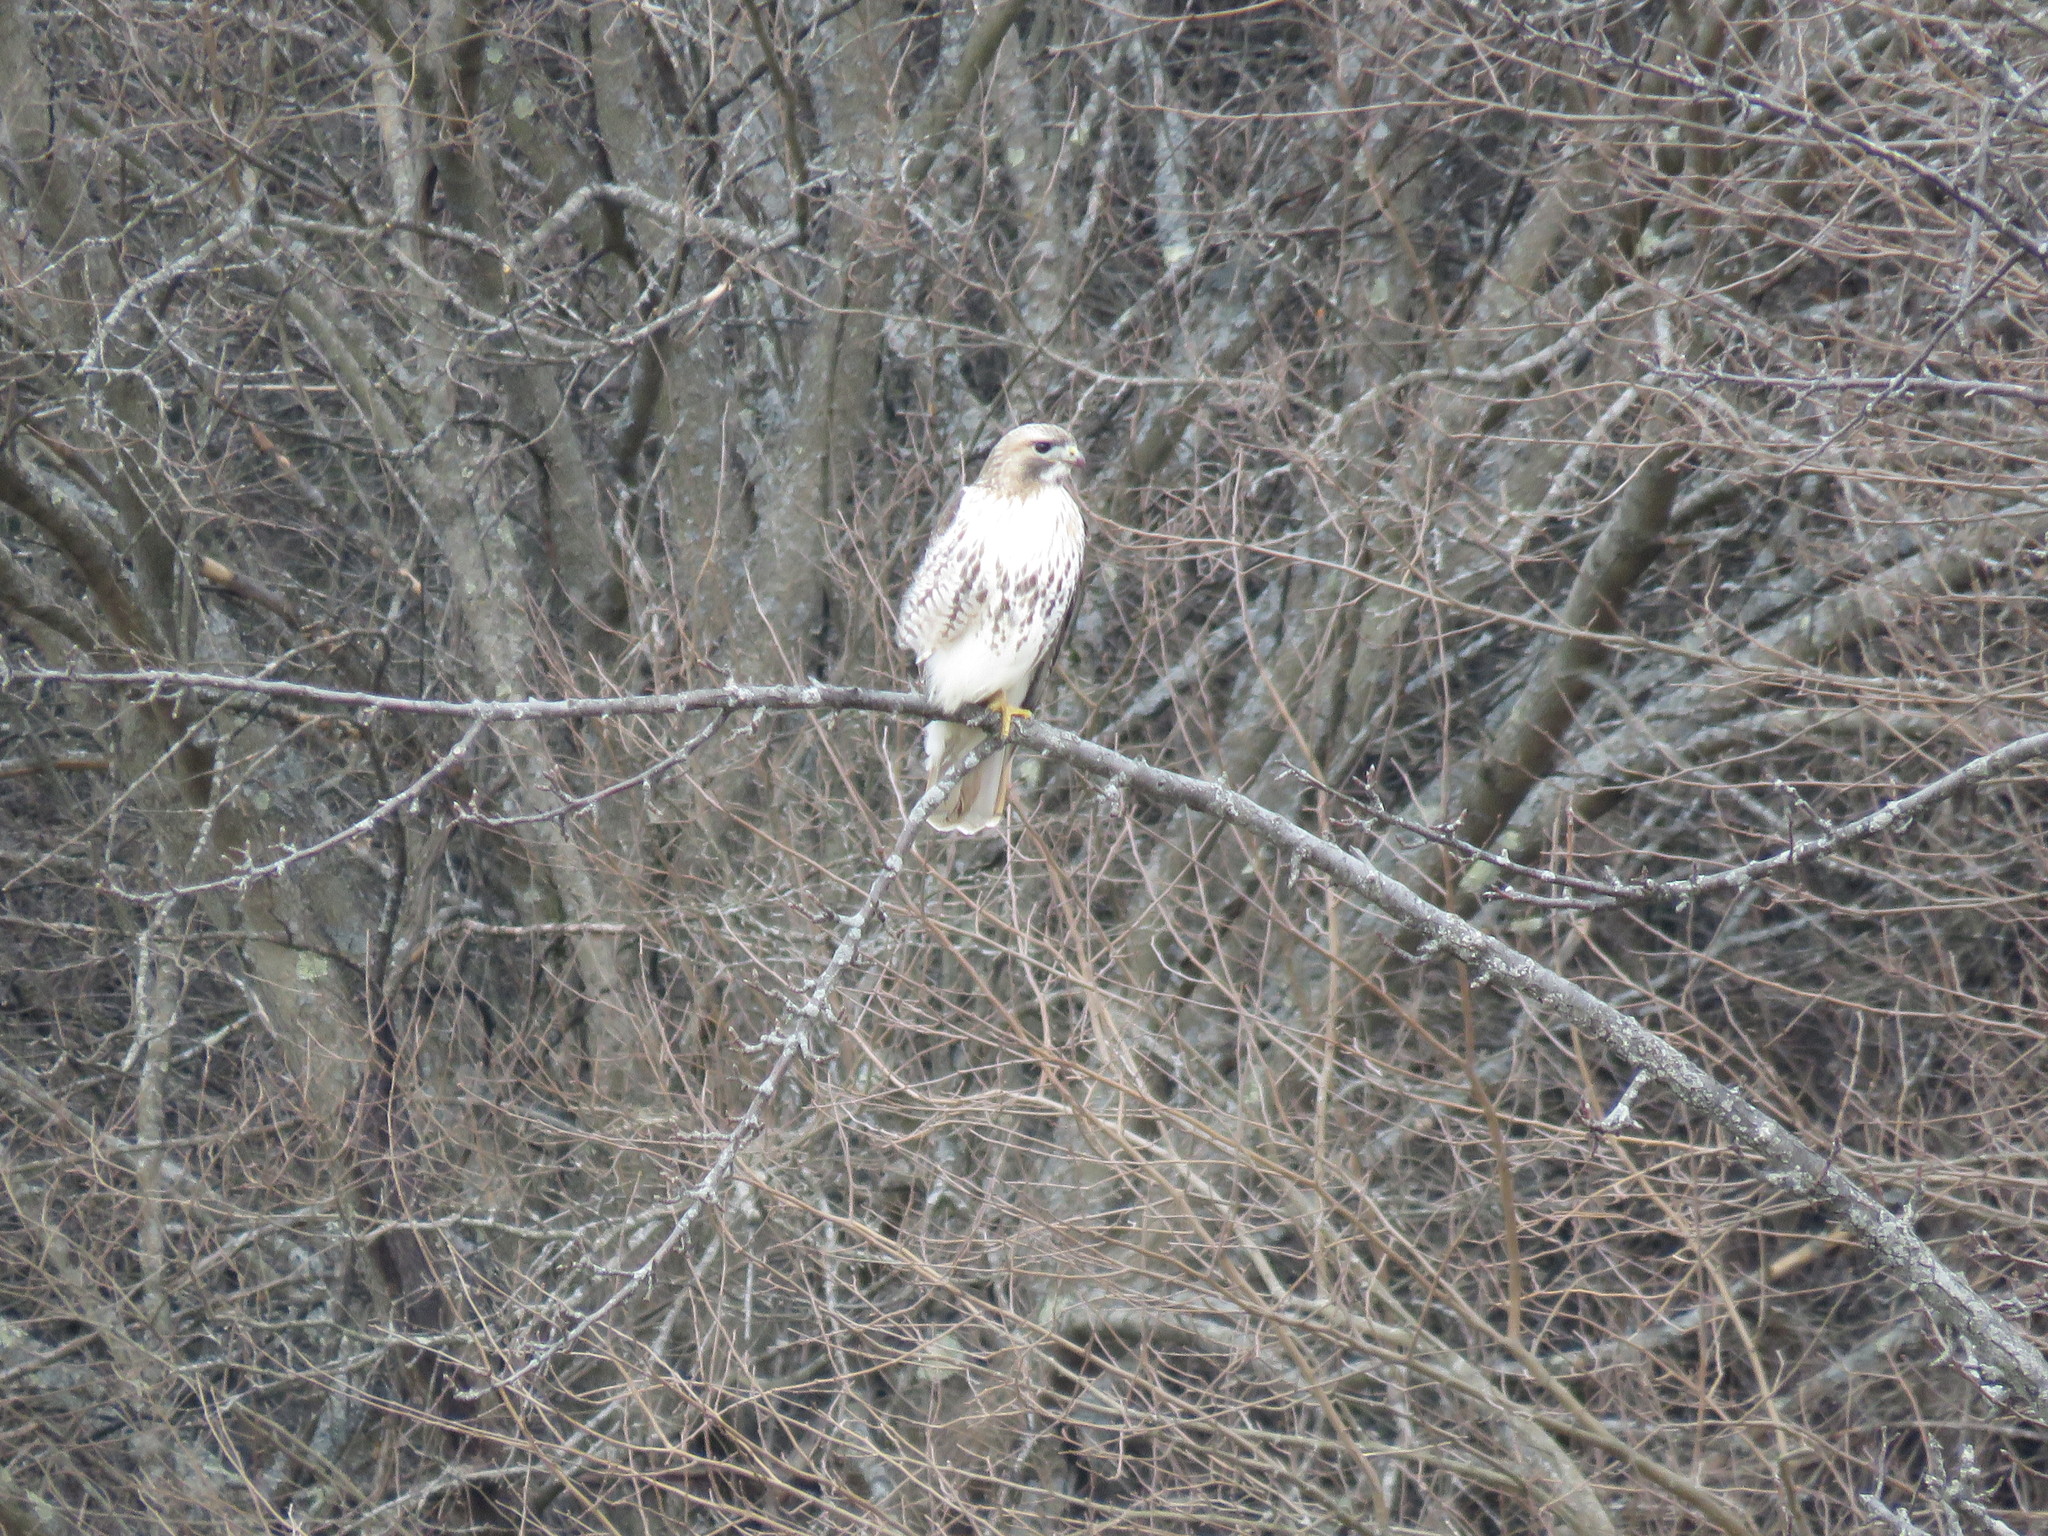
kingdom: Animalia
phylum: Chordata
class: Aves
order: Accipitriformes
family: Accipitridae
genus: Buteo
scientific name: Buteo jamaicensis
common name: Red-tailed hawk
